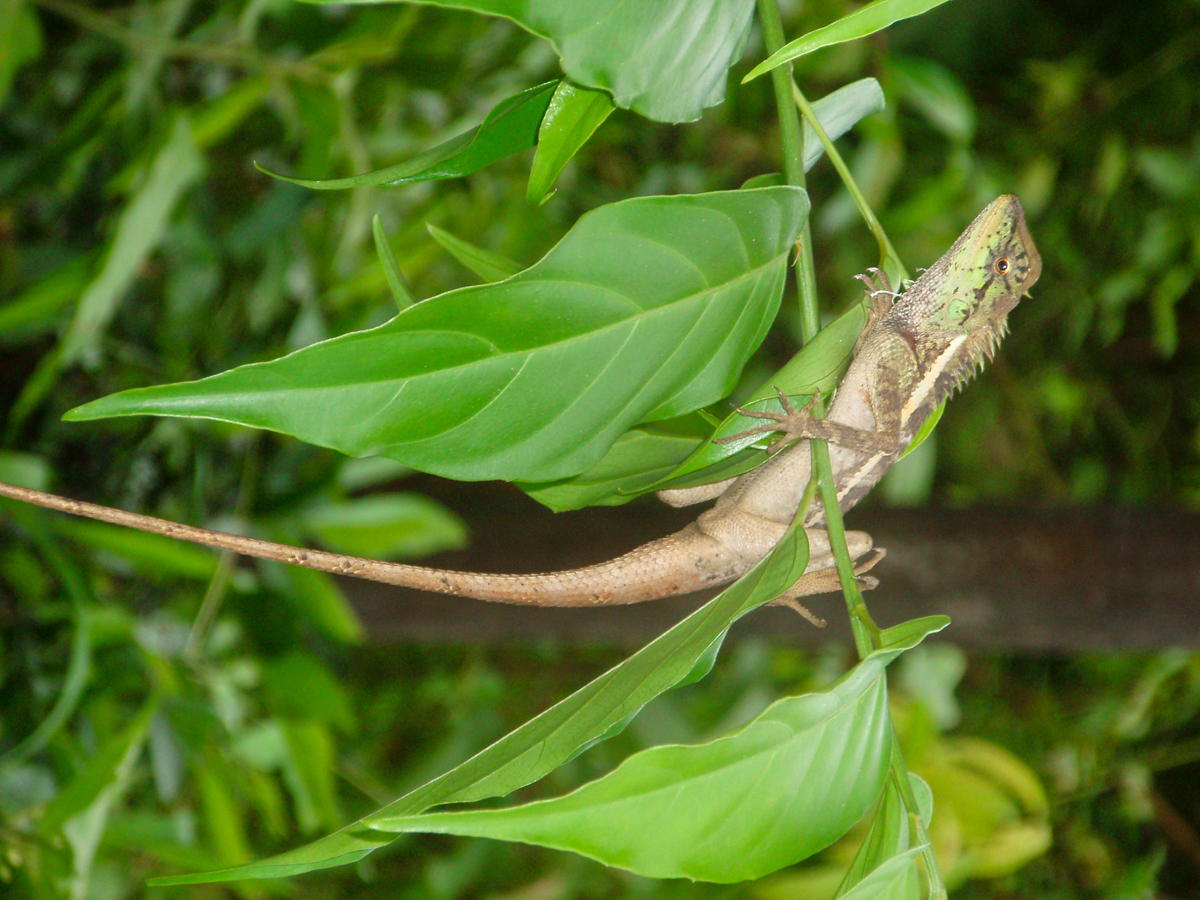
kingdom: Animalia
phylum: Chordata
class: Squamata
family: Agamidae
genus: Calotes
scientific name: Calotes emma
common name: Thailand bloodsucker
